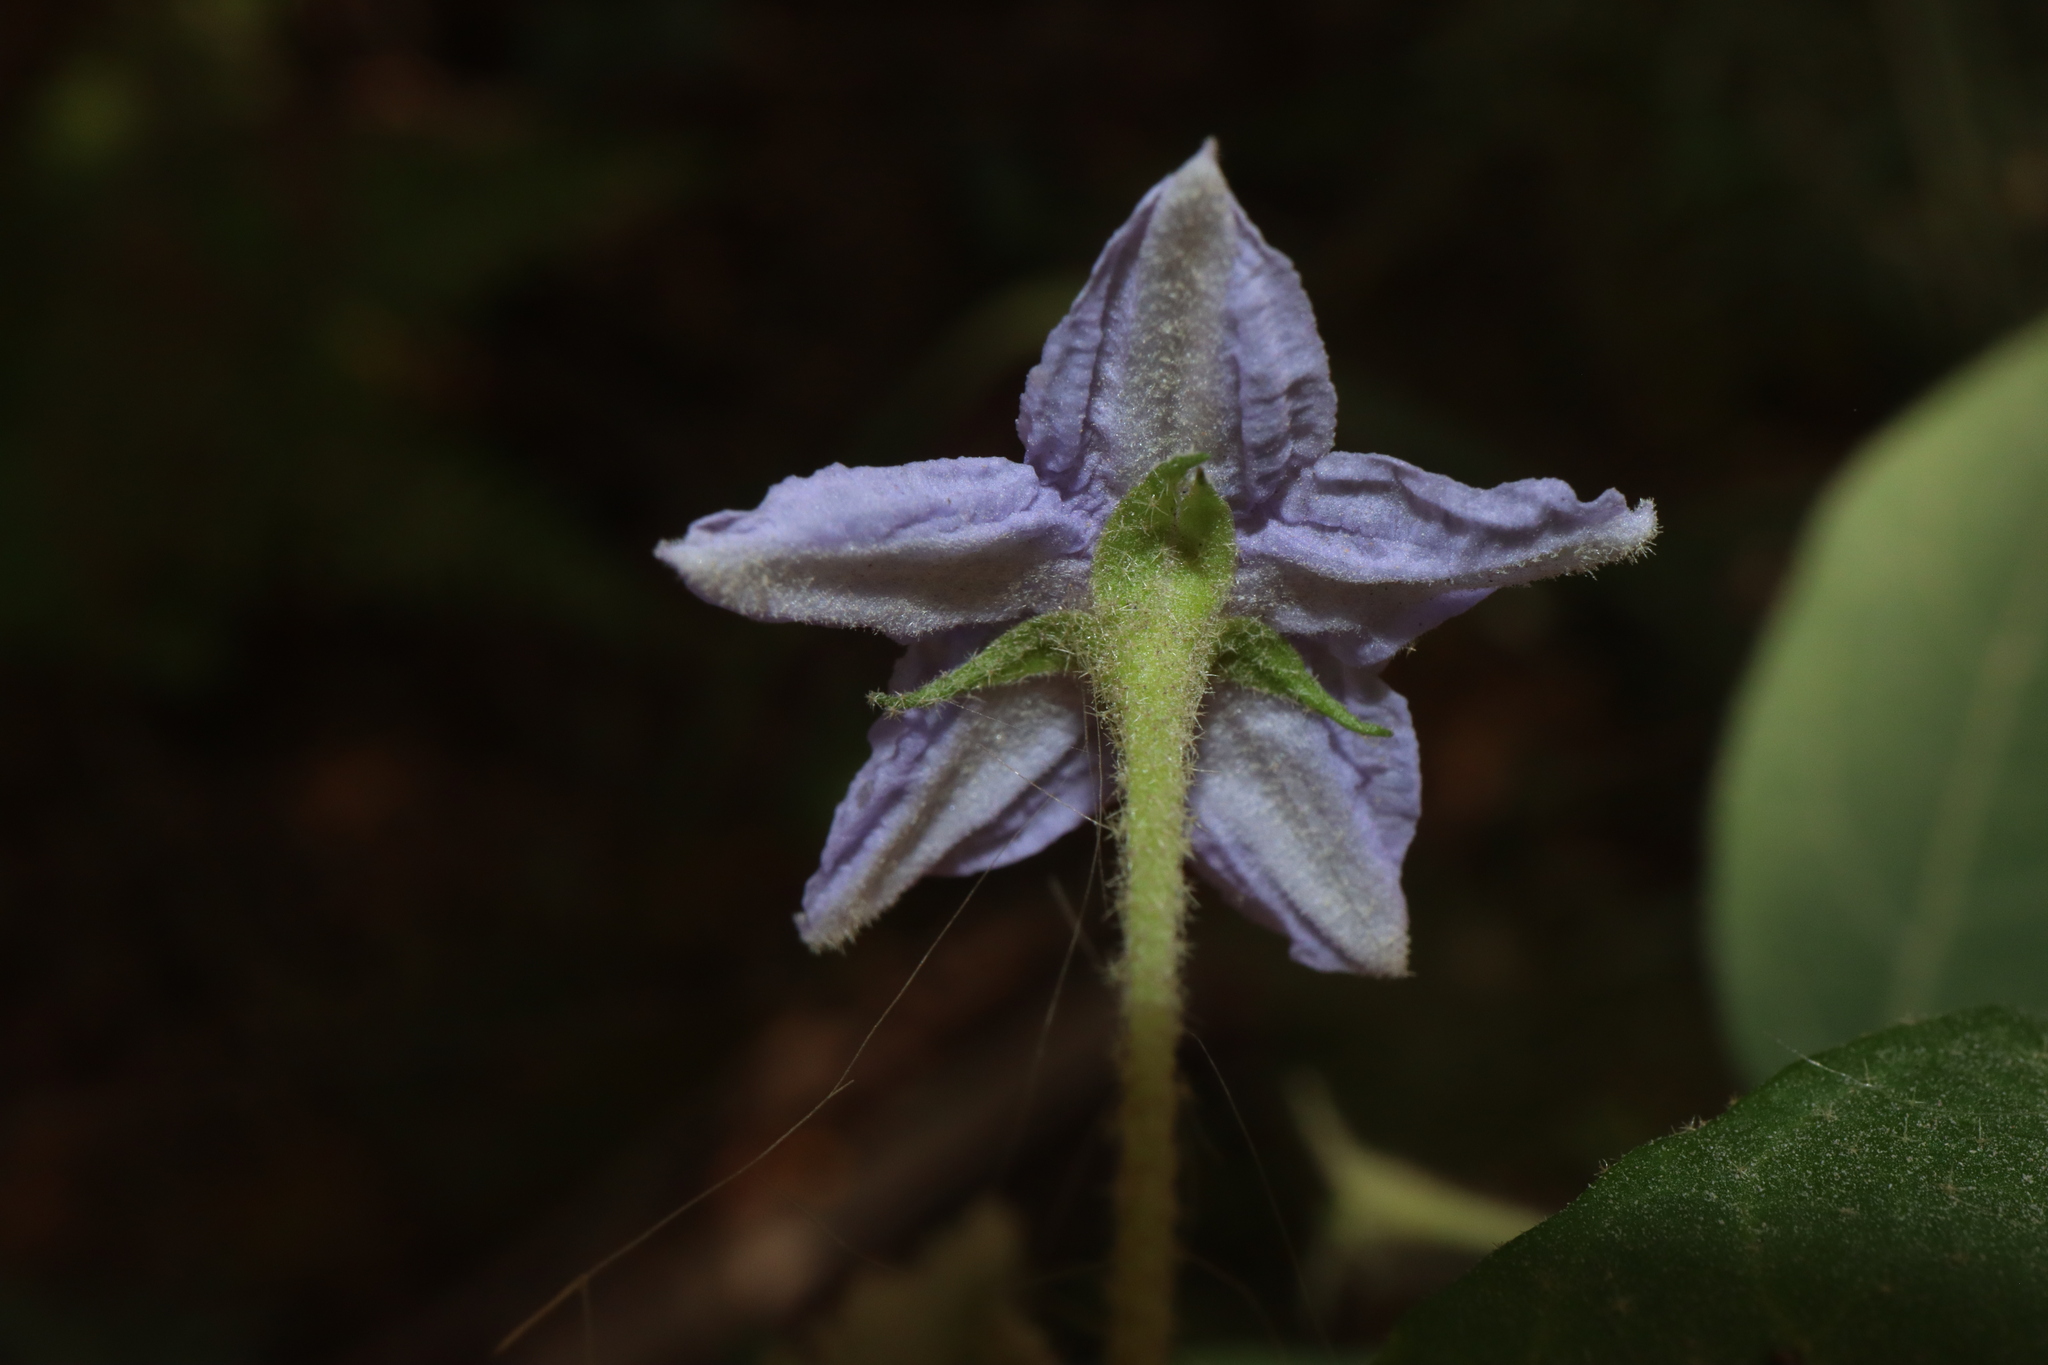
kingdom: Plantae
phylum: Tracheophyta
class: Magnoliopsida
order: Solanales
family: Solanaceae
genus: Solanum
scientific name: Solanum hapalum
